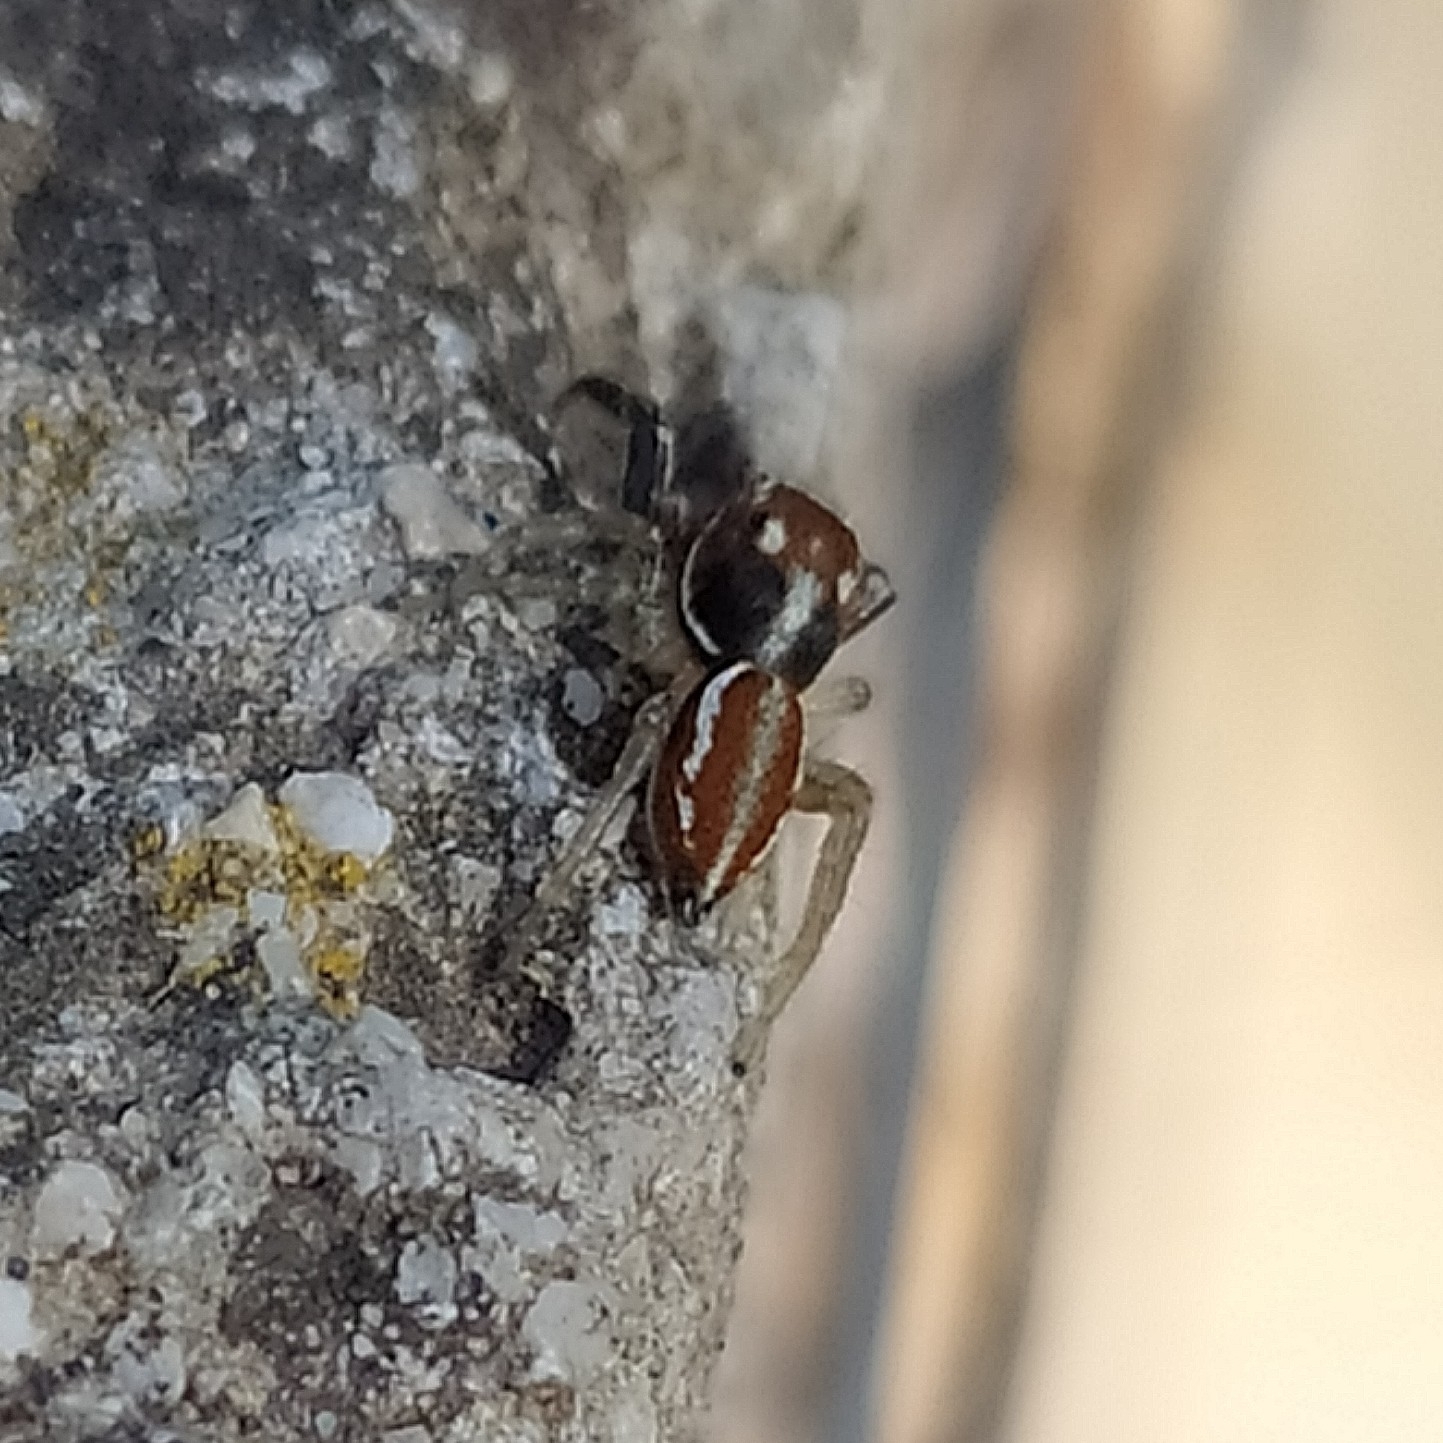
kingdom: Animalia
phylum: Arthropoda
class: Arachnida
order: Araneae
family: Salticidae
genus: Icius
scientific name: Icius hamatus
